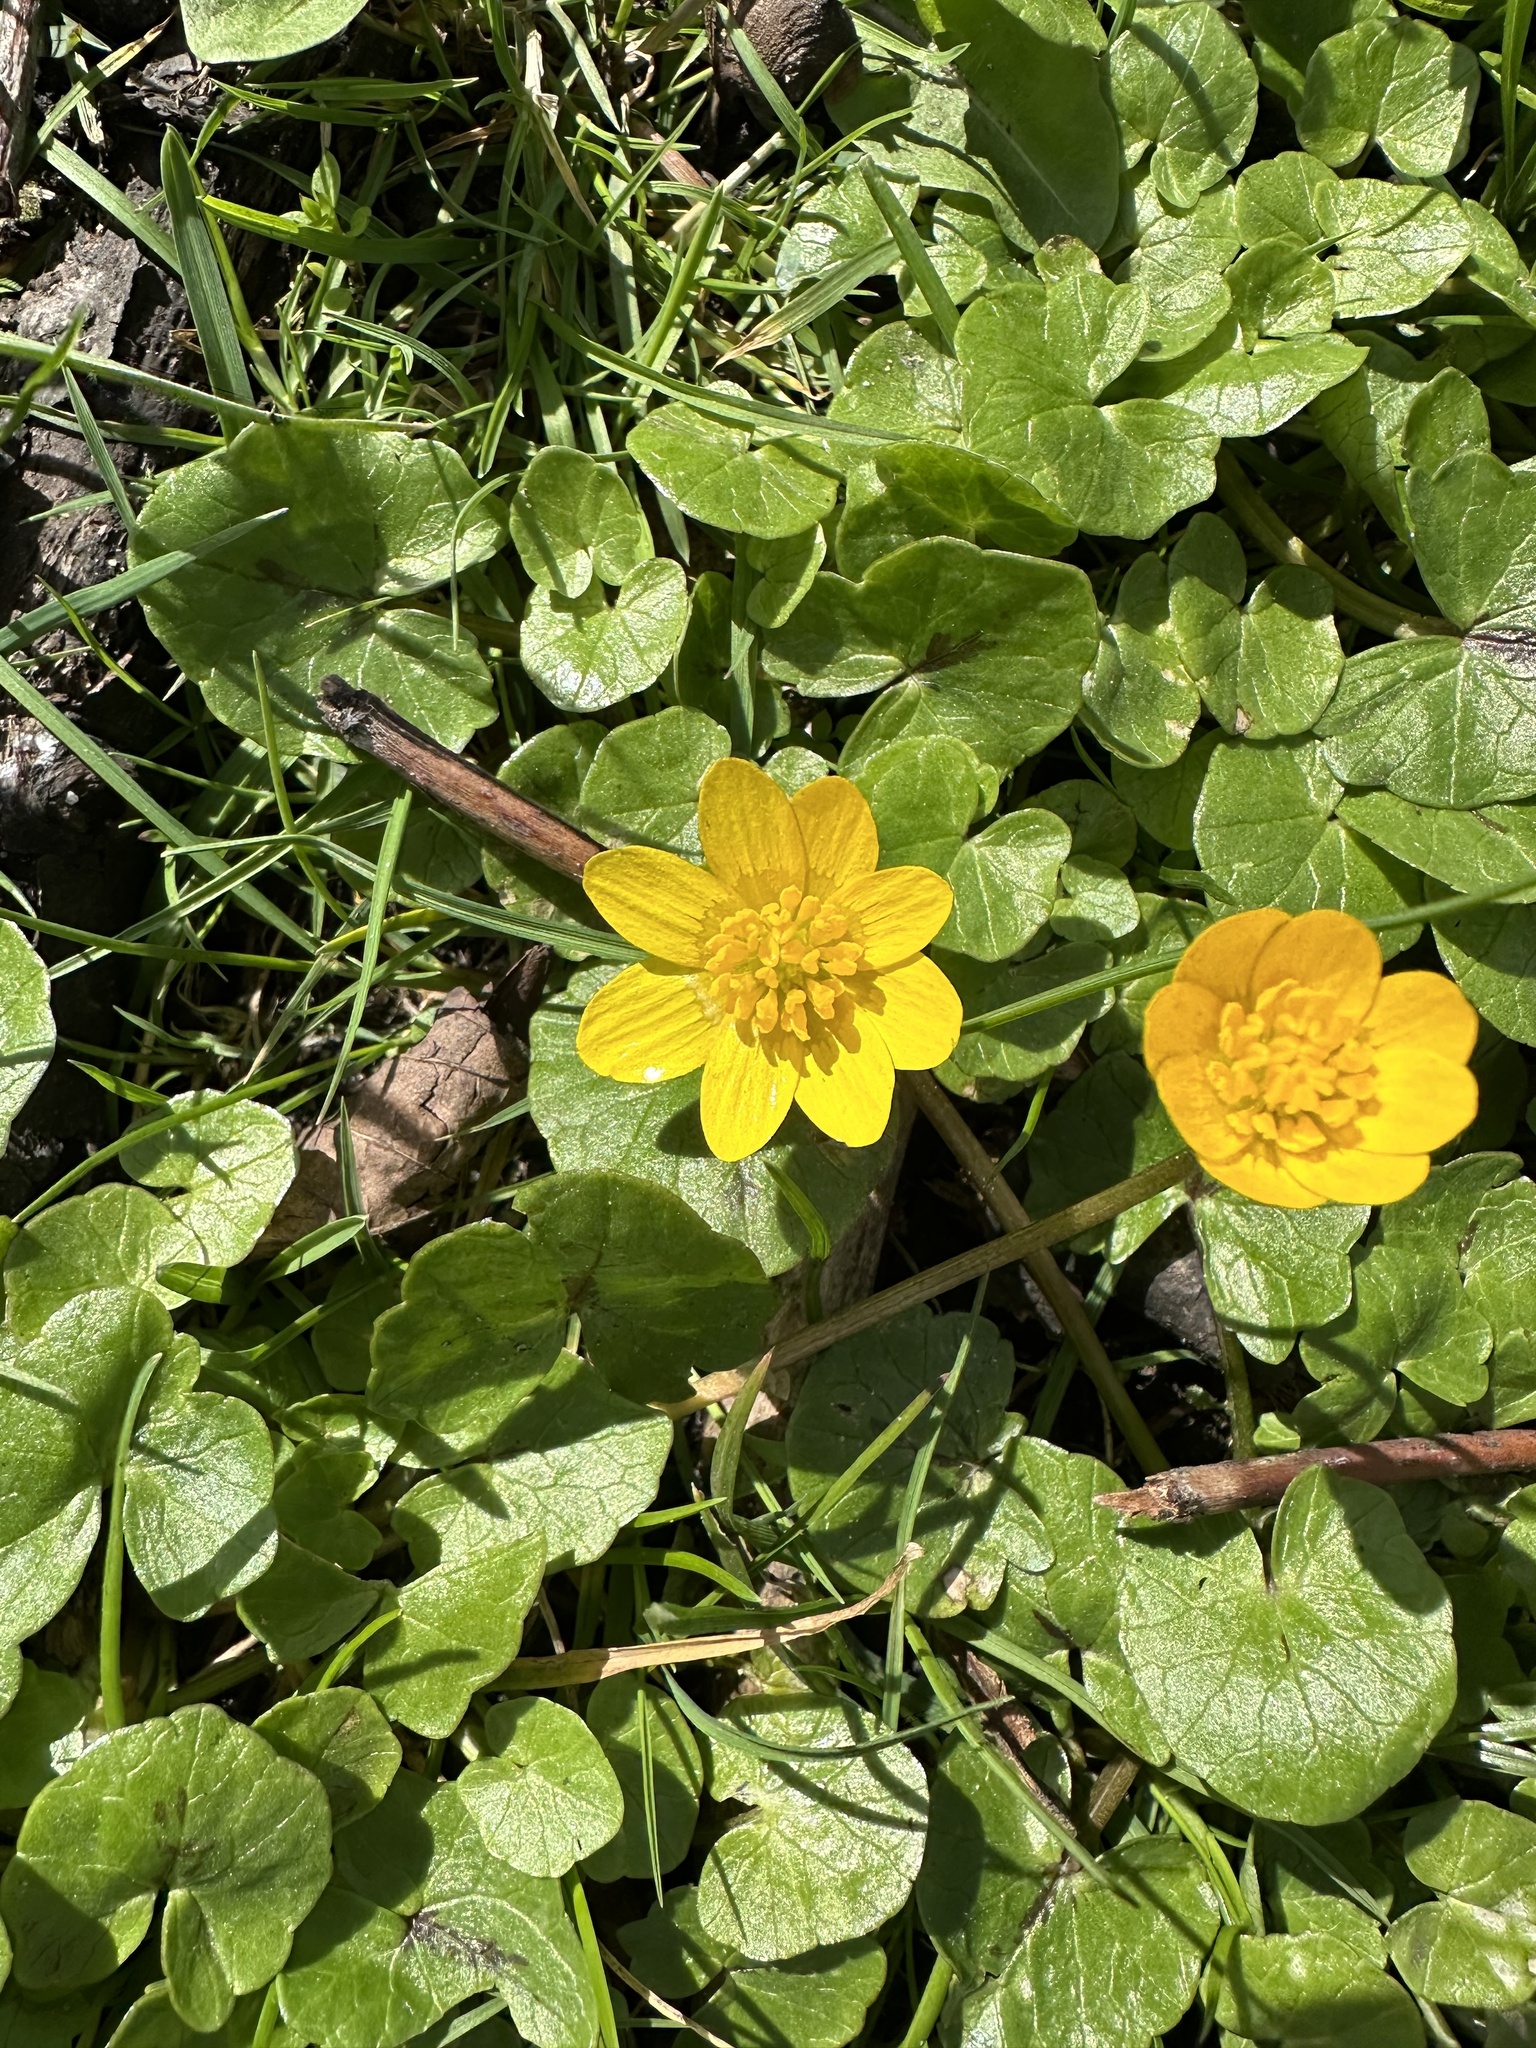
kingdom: Plantae
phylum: Tracheophyta
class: Magnoliopsida
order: Ranunculales
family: Ranunculaceae
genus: Ficaria
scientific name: Ficaria verna
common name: Lesser celandine
